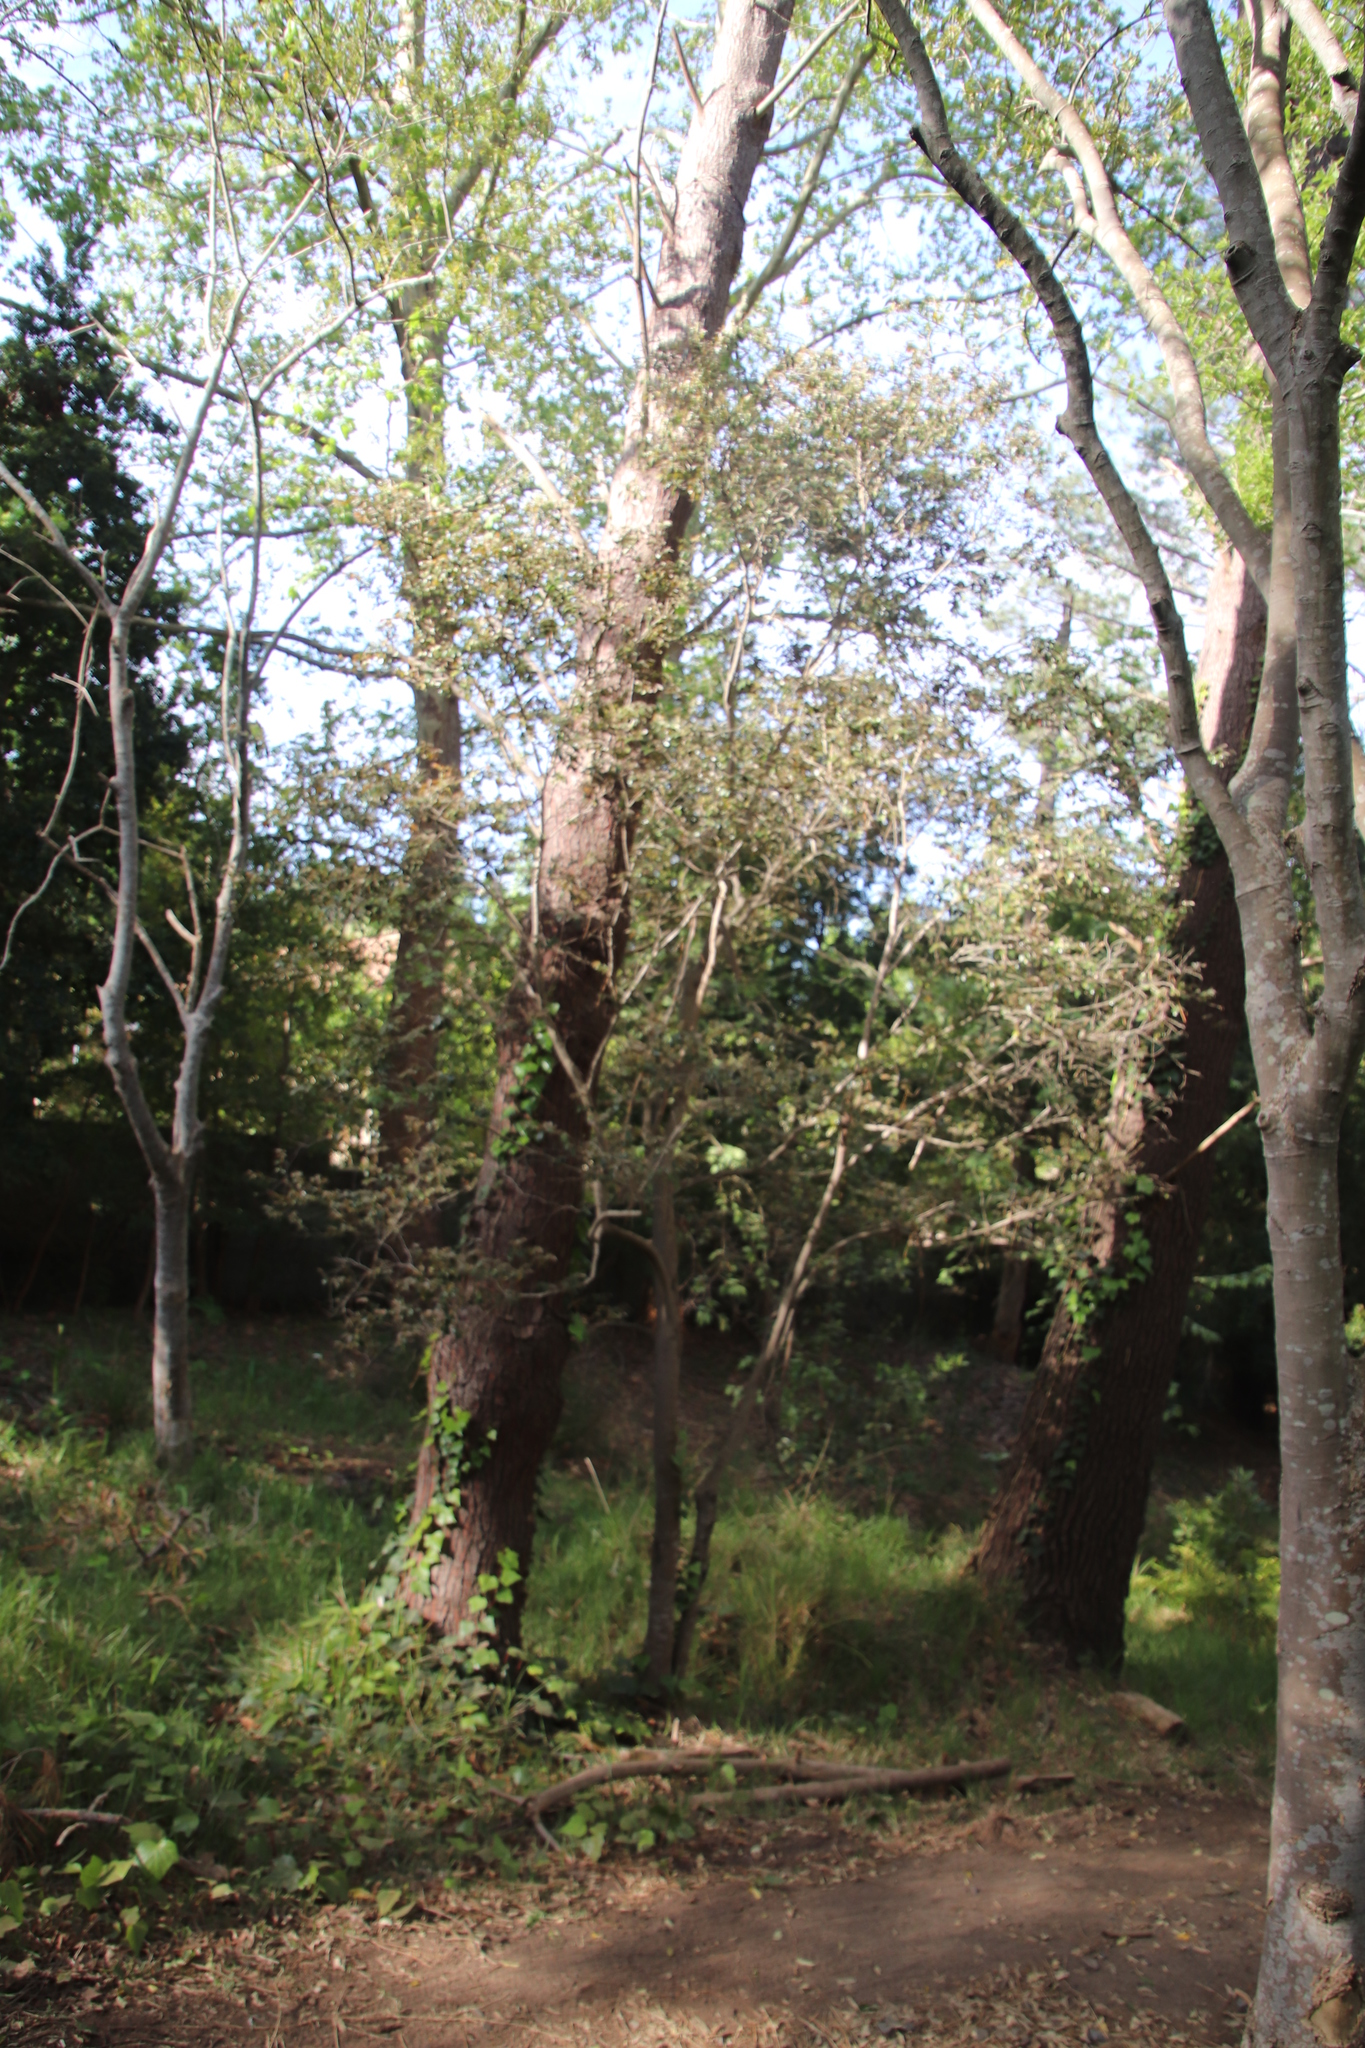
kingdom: Plantae
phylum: Tracheophyta
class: Magnoliopsida
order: Ericales
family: Ebenaceae
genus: Diospyros
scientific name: Diospyros whyteana
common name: Bladder-nut
